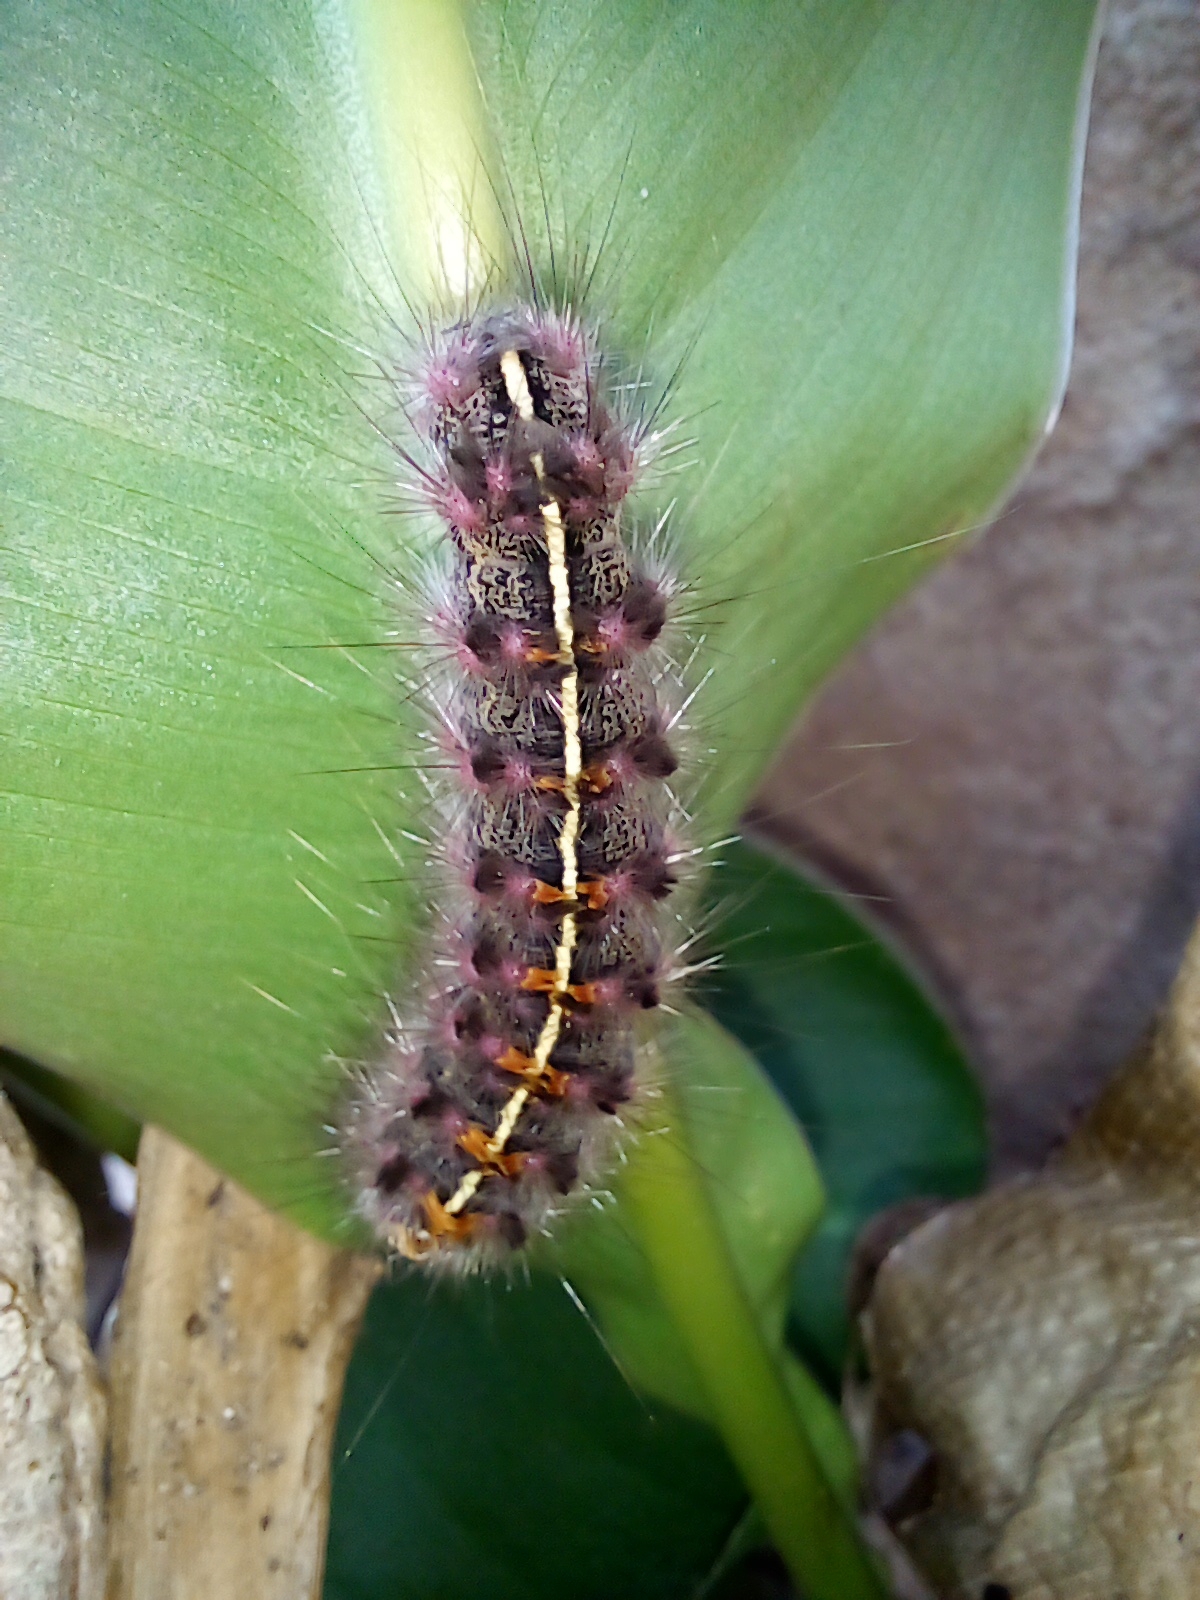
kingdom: Animalia
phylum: Arthropoda
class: Insecta
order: Lepidoptera
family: Erebidae
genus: Paracles
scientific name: Paracles fusca
